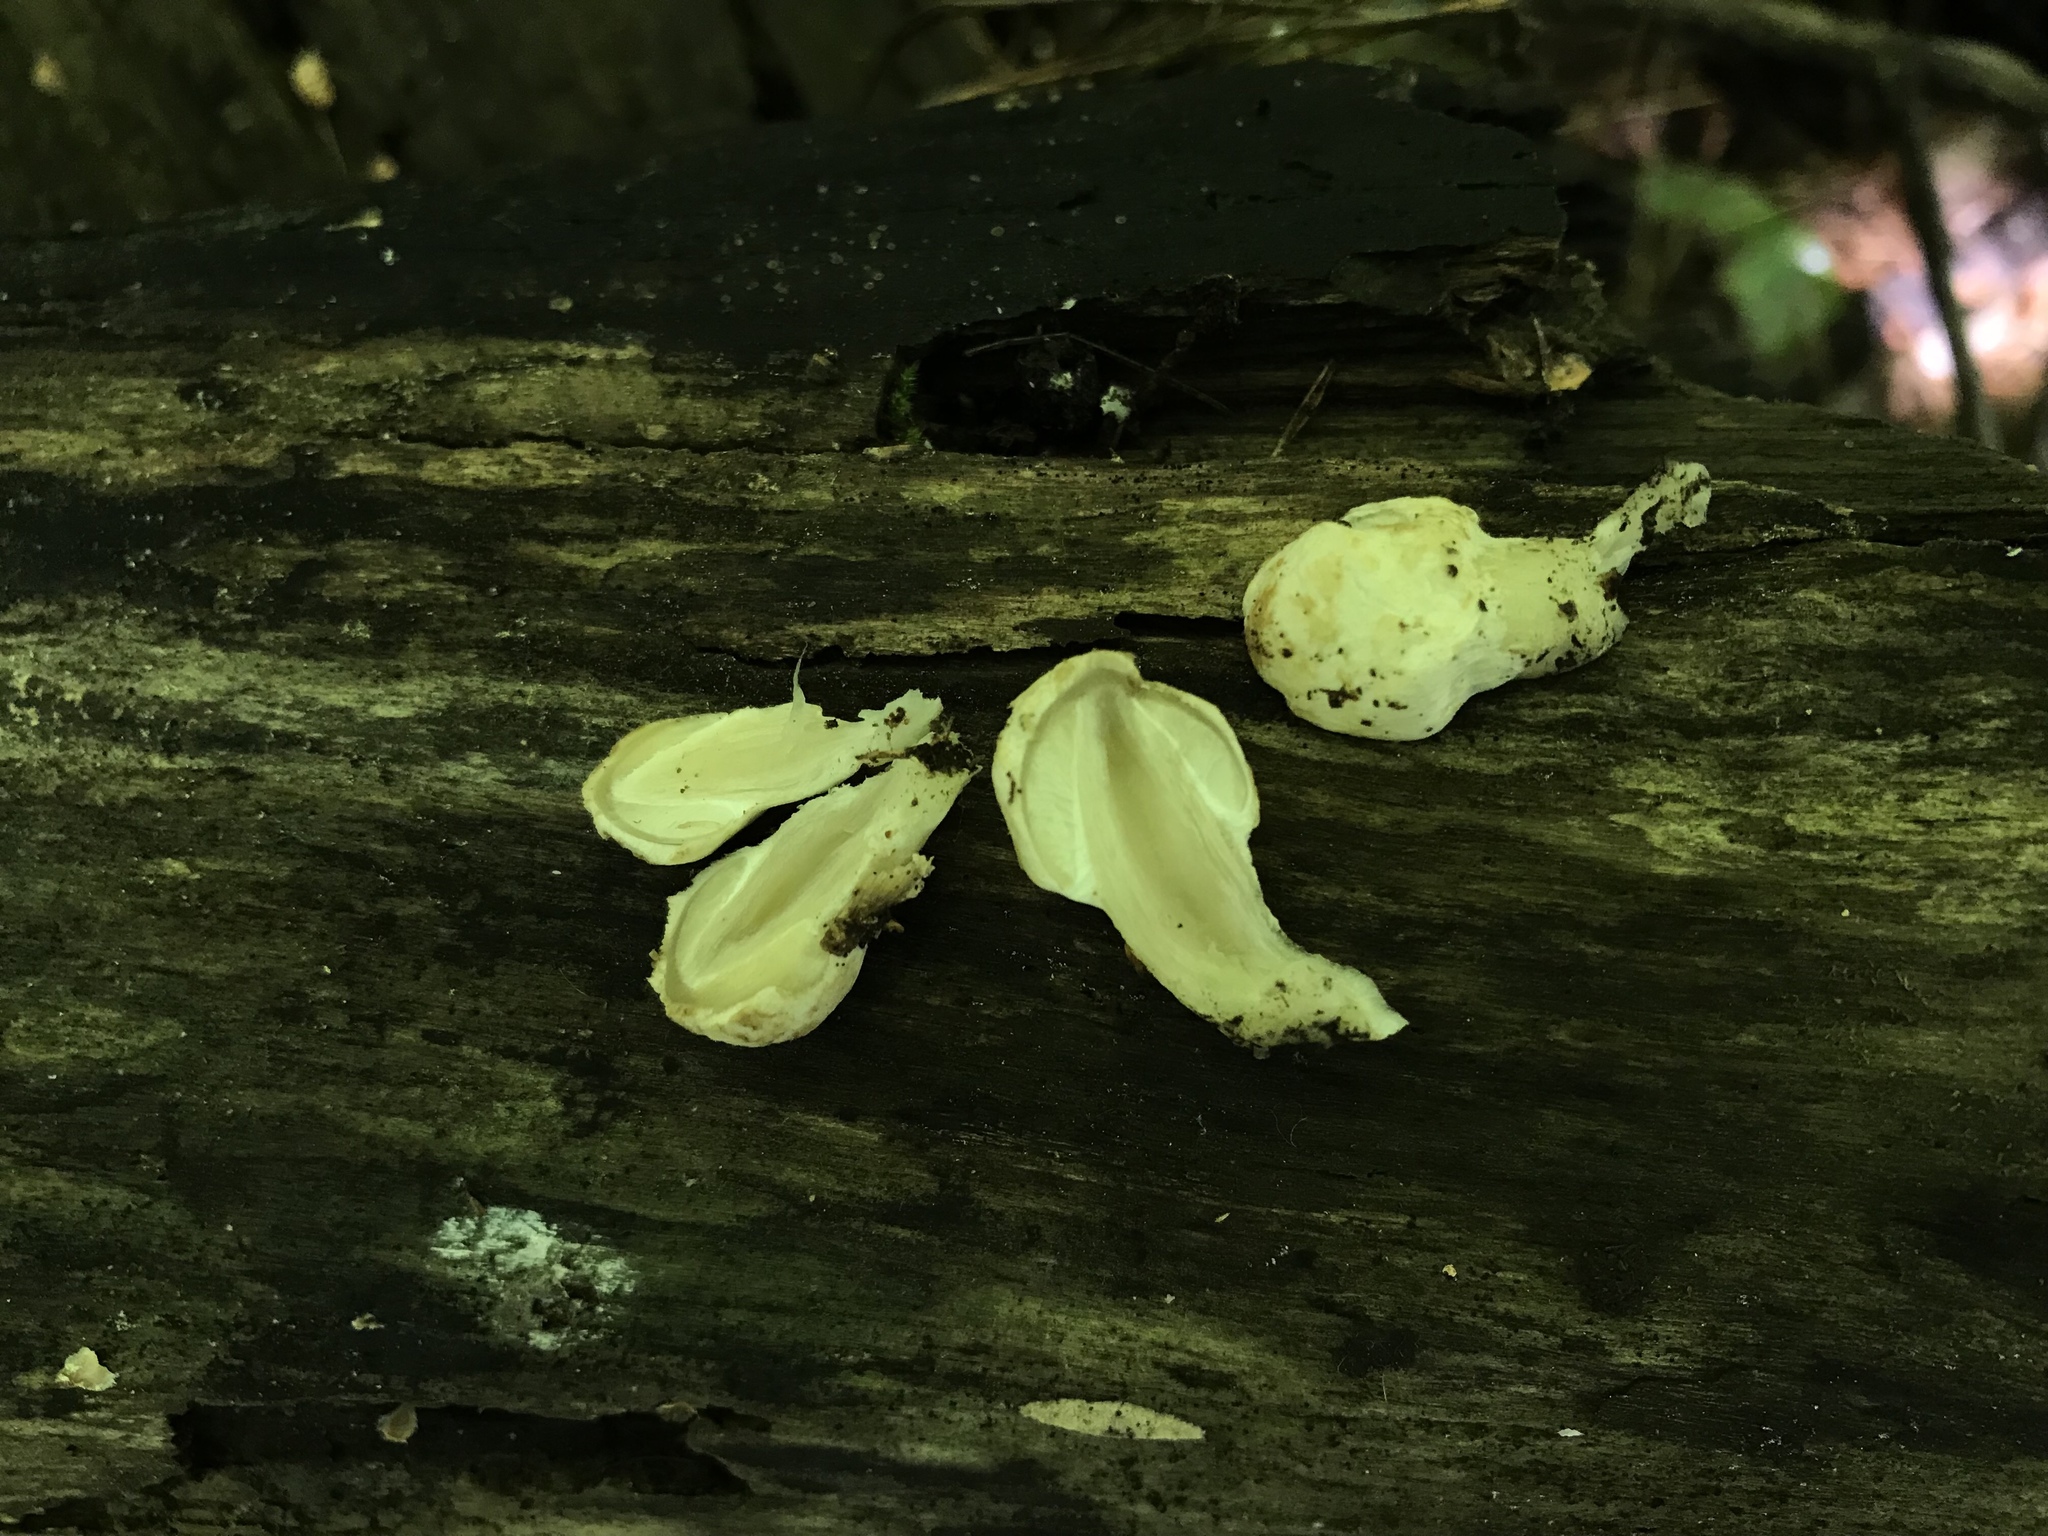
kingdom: Fungi
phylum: Basidiomycota
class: Agaricomycetes
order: Agaricales
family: Psathyrellaceae
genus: Coprinopsis
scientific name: Coprinopsis variegata
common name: Scaly ink cap
